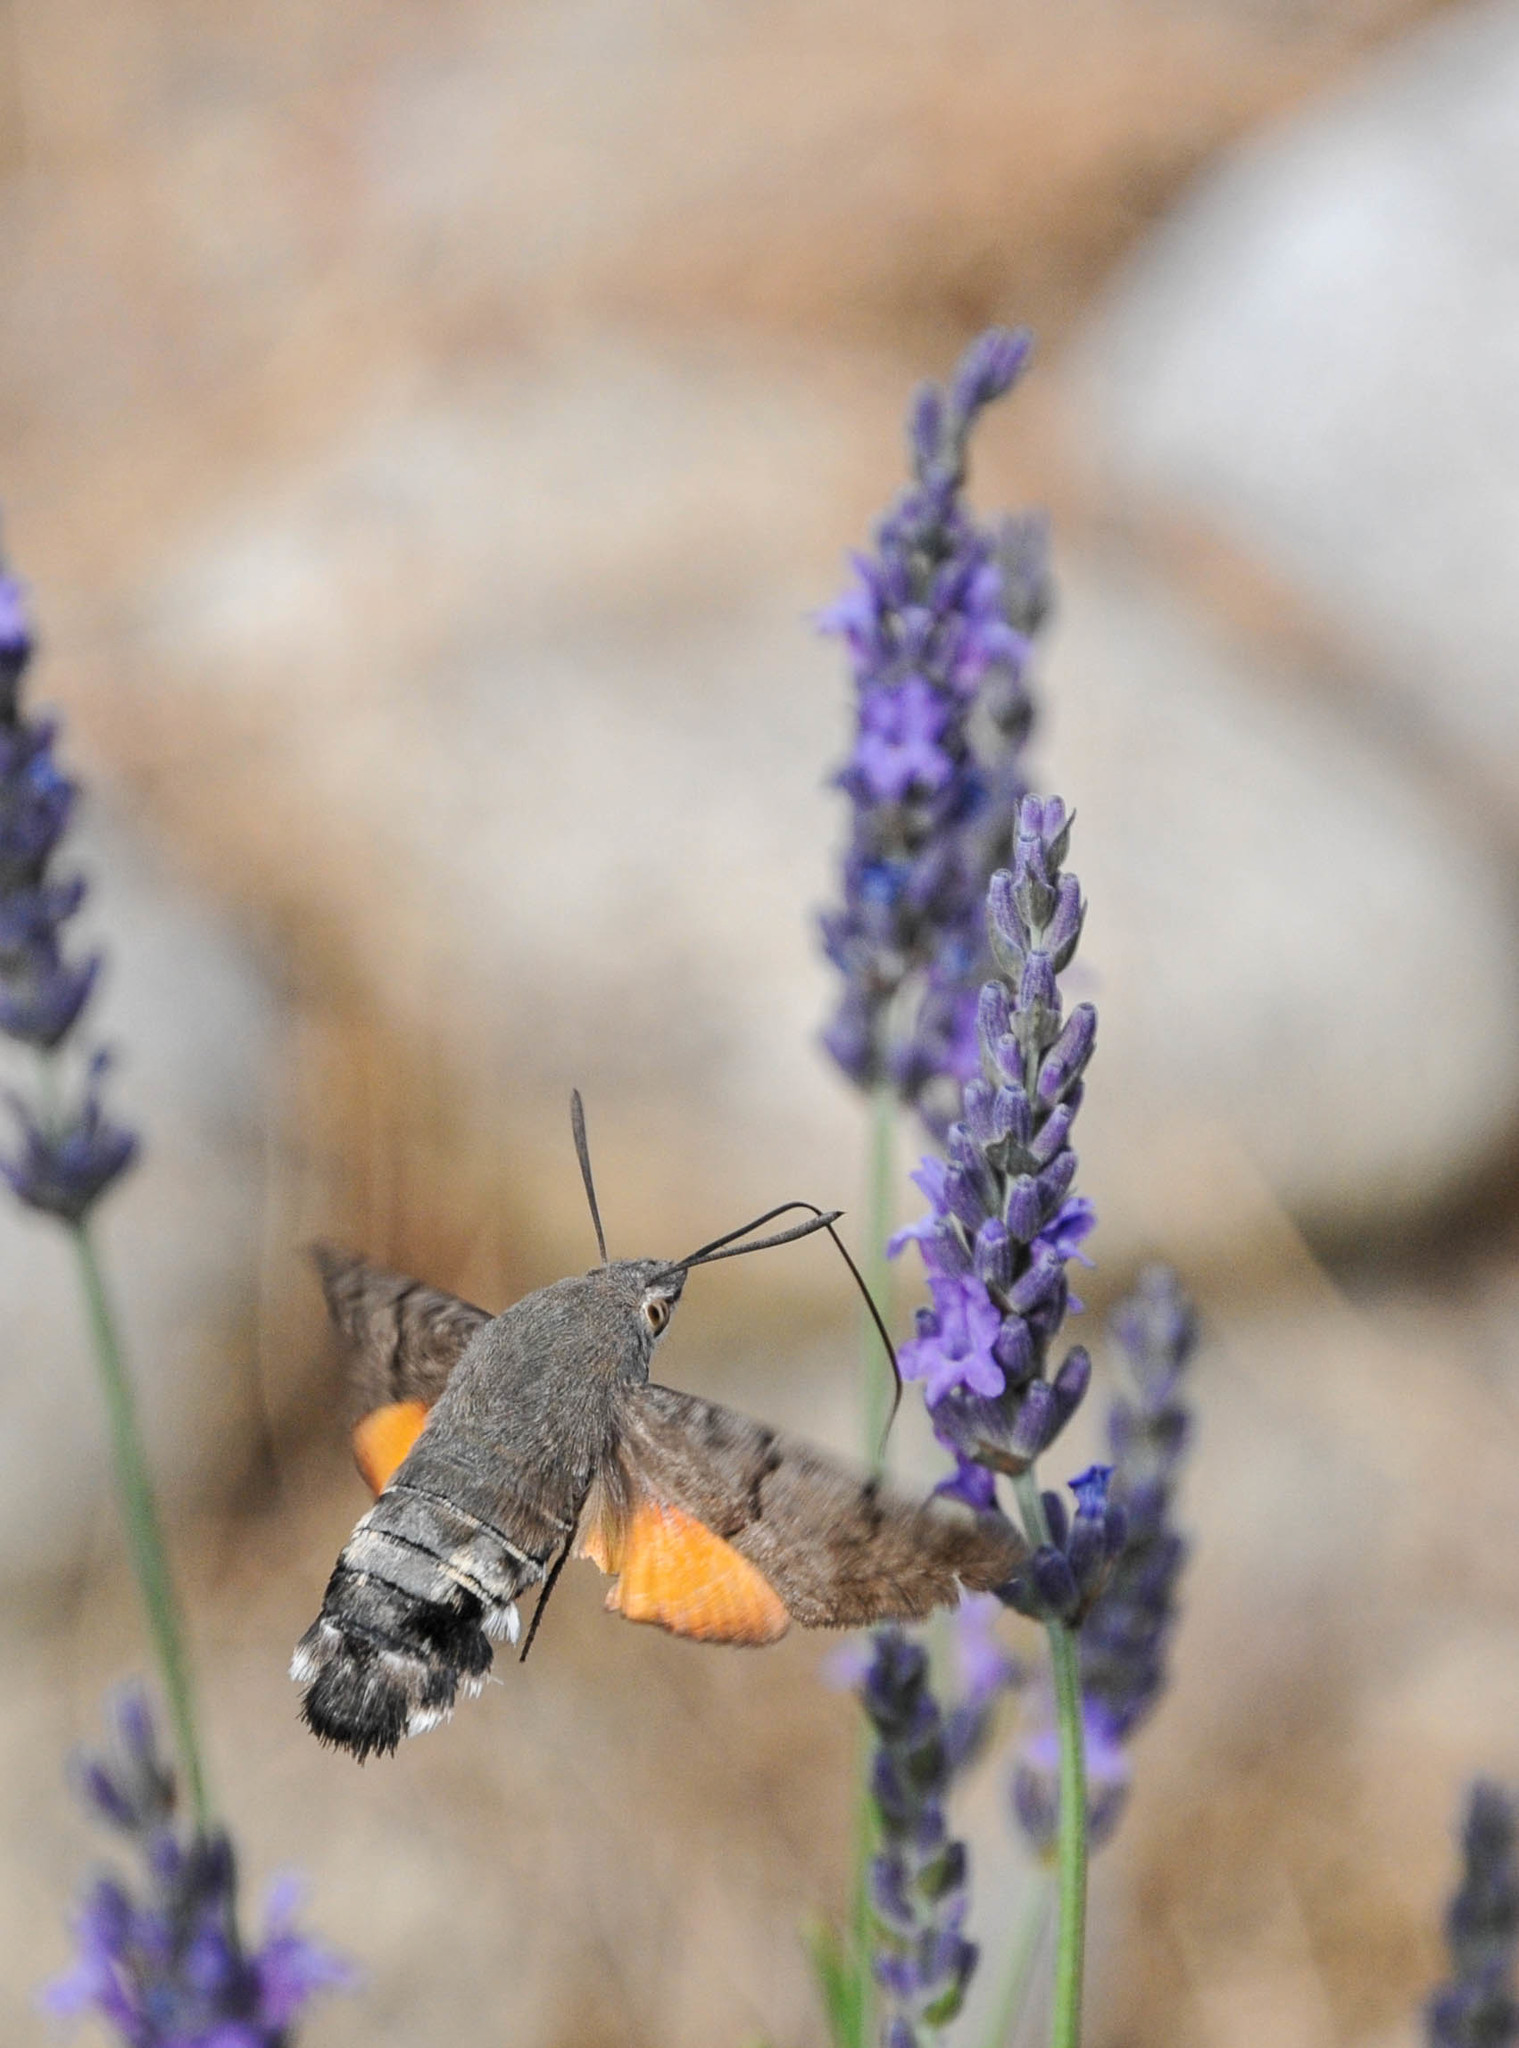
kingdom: Animalia
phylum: Arthropoda
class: Insecta
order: Lepidoptera
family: Sphingidae
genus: Macroglossum
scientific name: Macroglossum stellatarum
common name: Humming-bird hawk-moth
